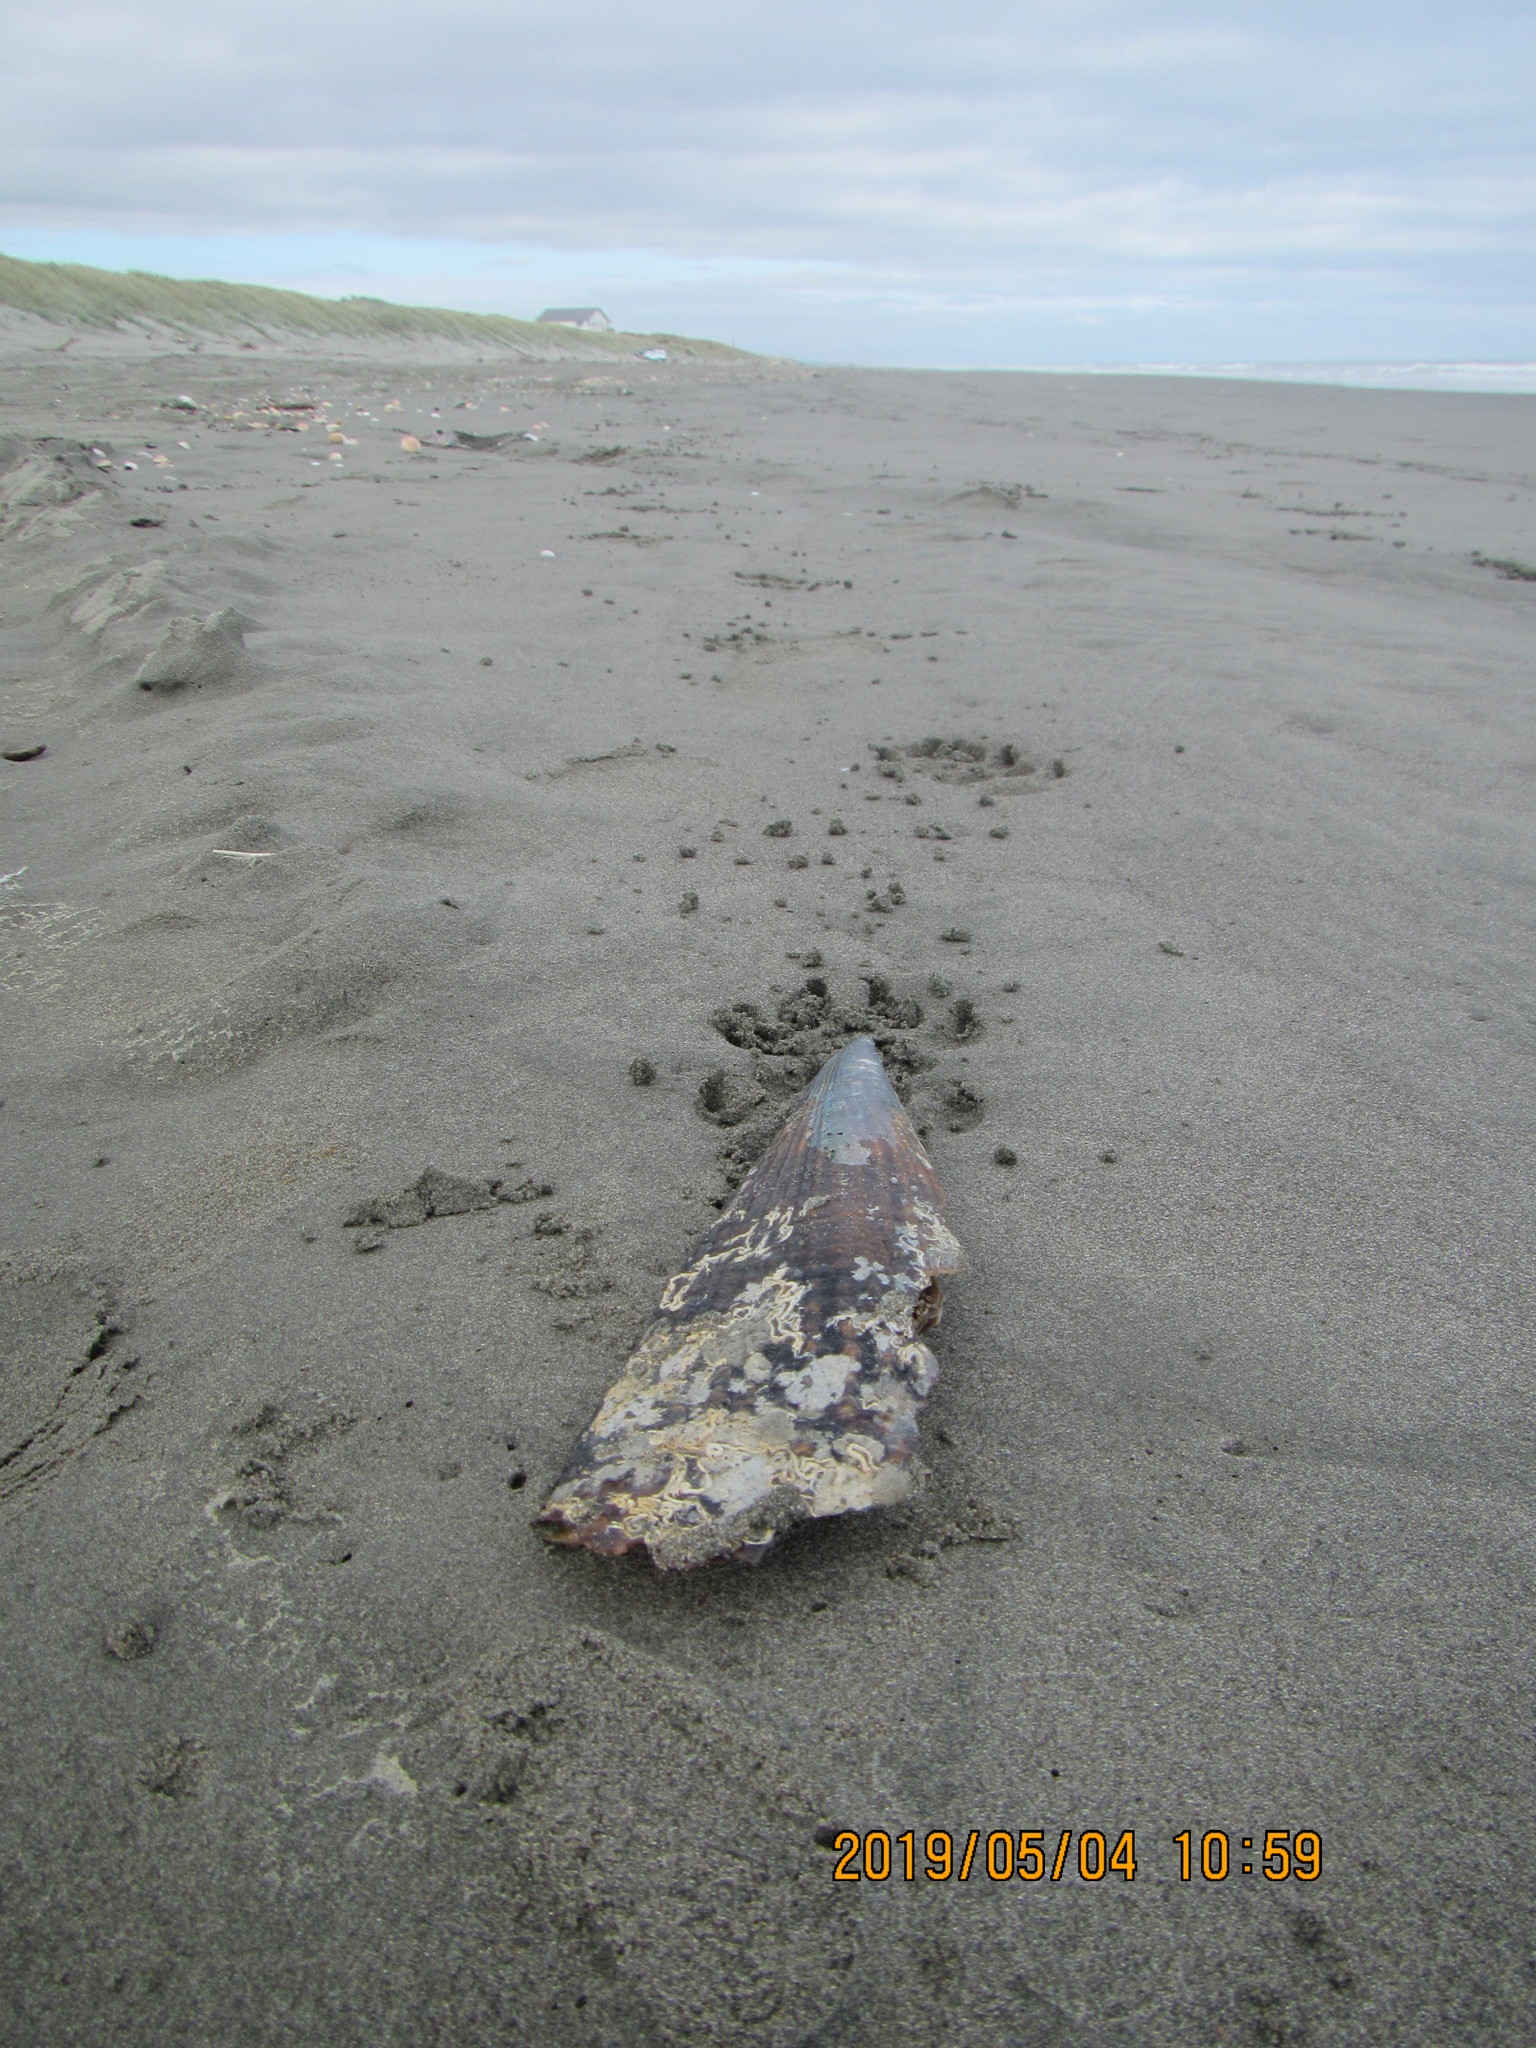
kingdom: Animalia
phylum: Mollusca
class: Bivalvia
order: Ostreida
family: Pinnidae
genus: Atrina
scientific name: Atrina zelandica
